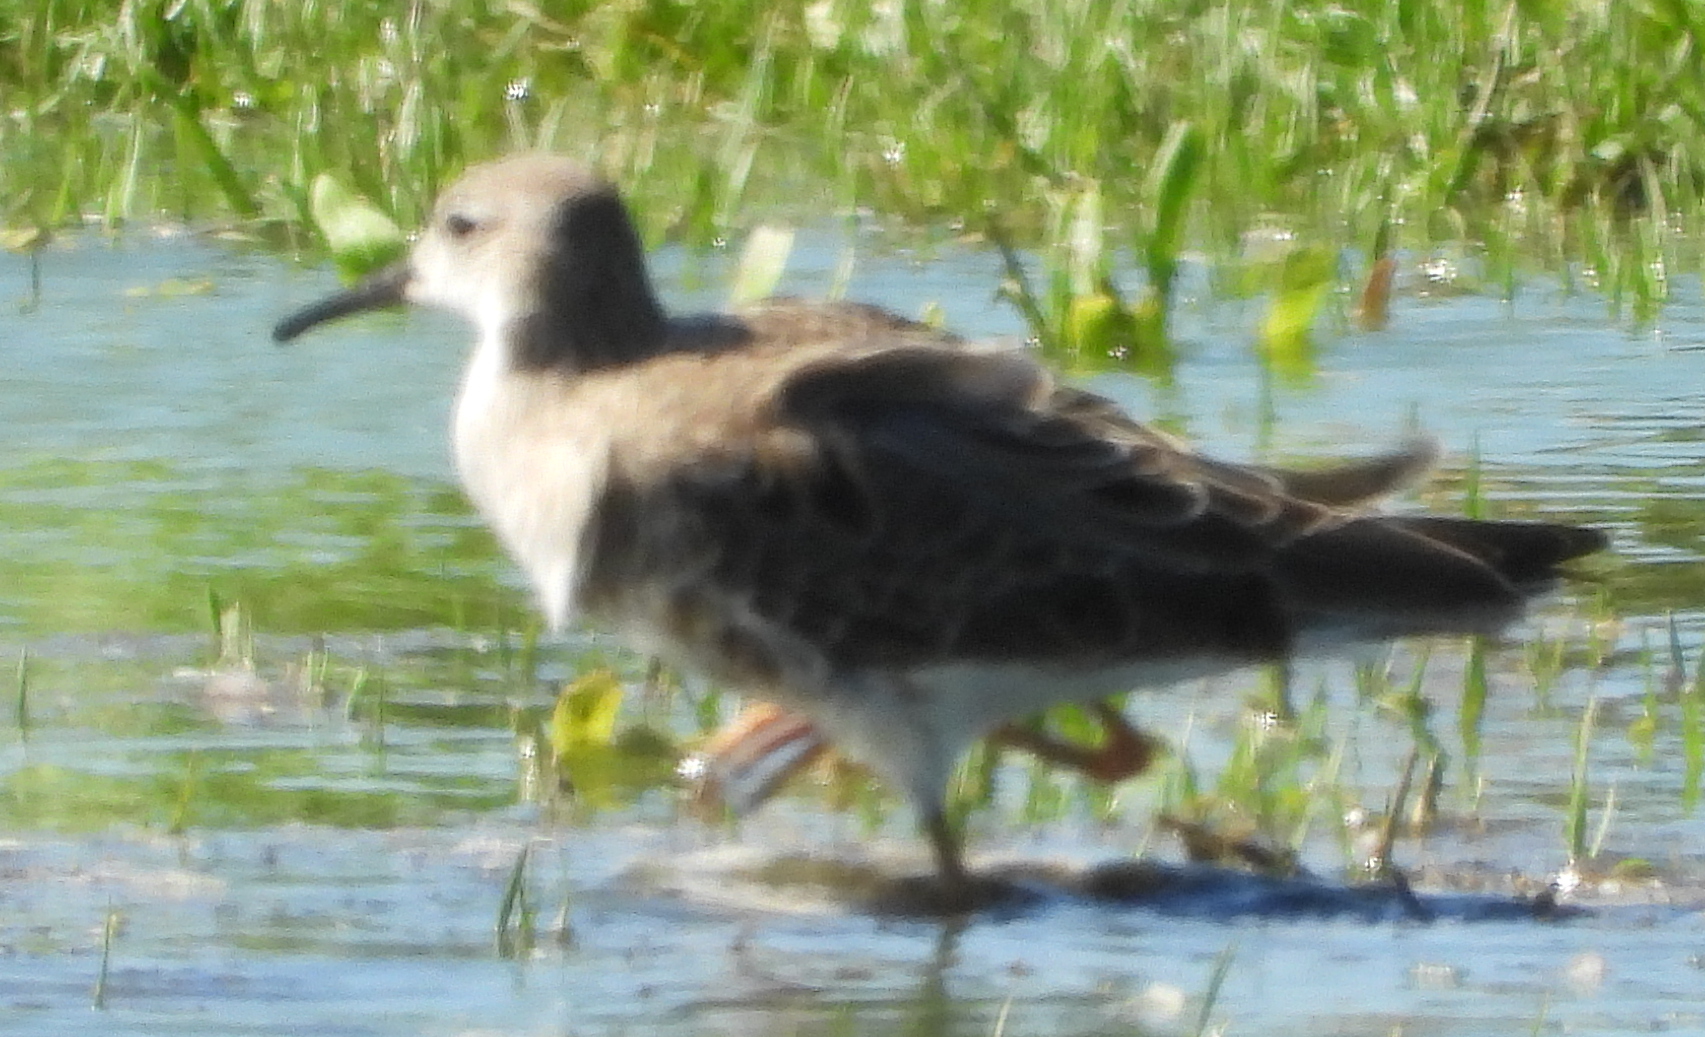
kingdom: Animalia
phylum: Chordata
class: Aves
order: Charadriiformes
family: Scolopacidae
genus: Calidris
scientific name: Calidris pugnax
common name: Ruff
